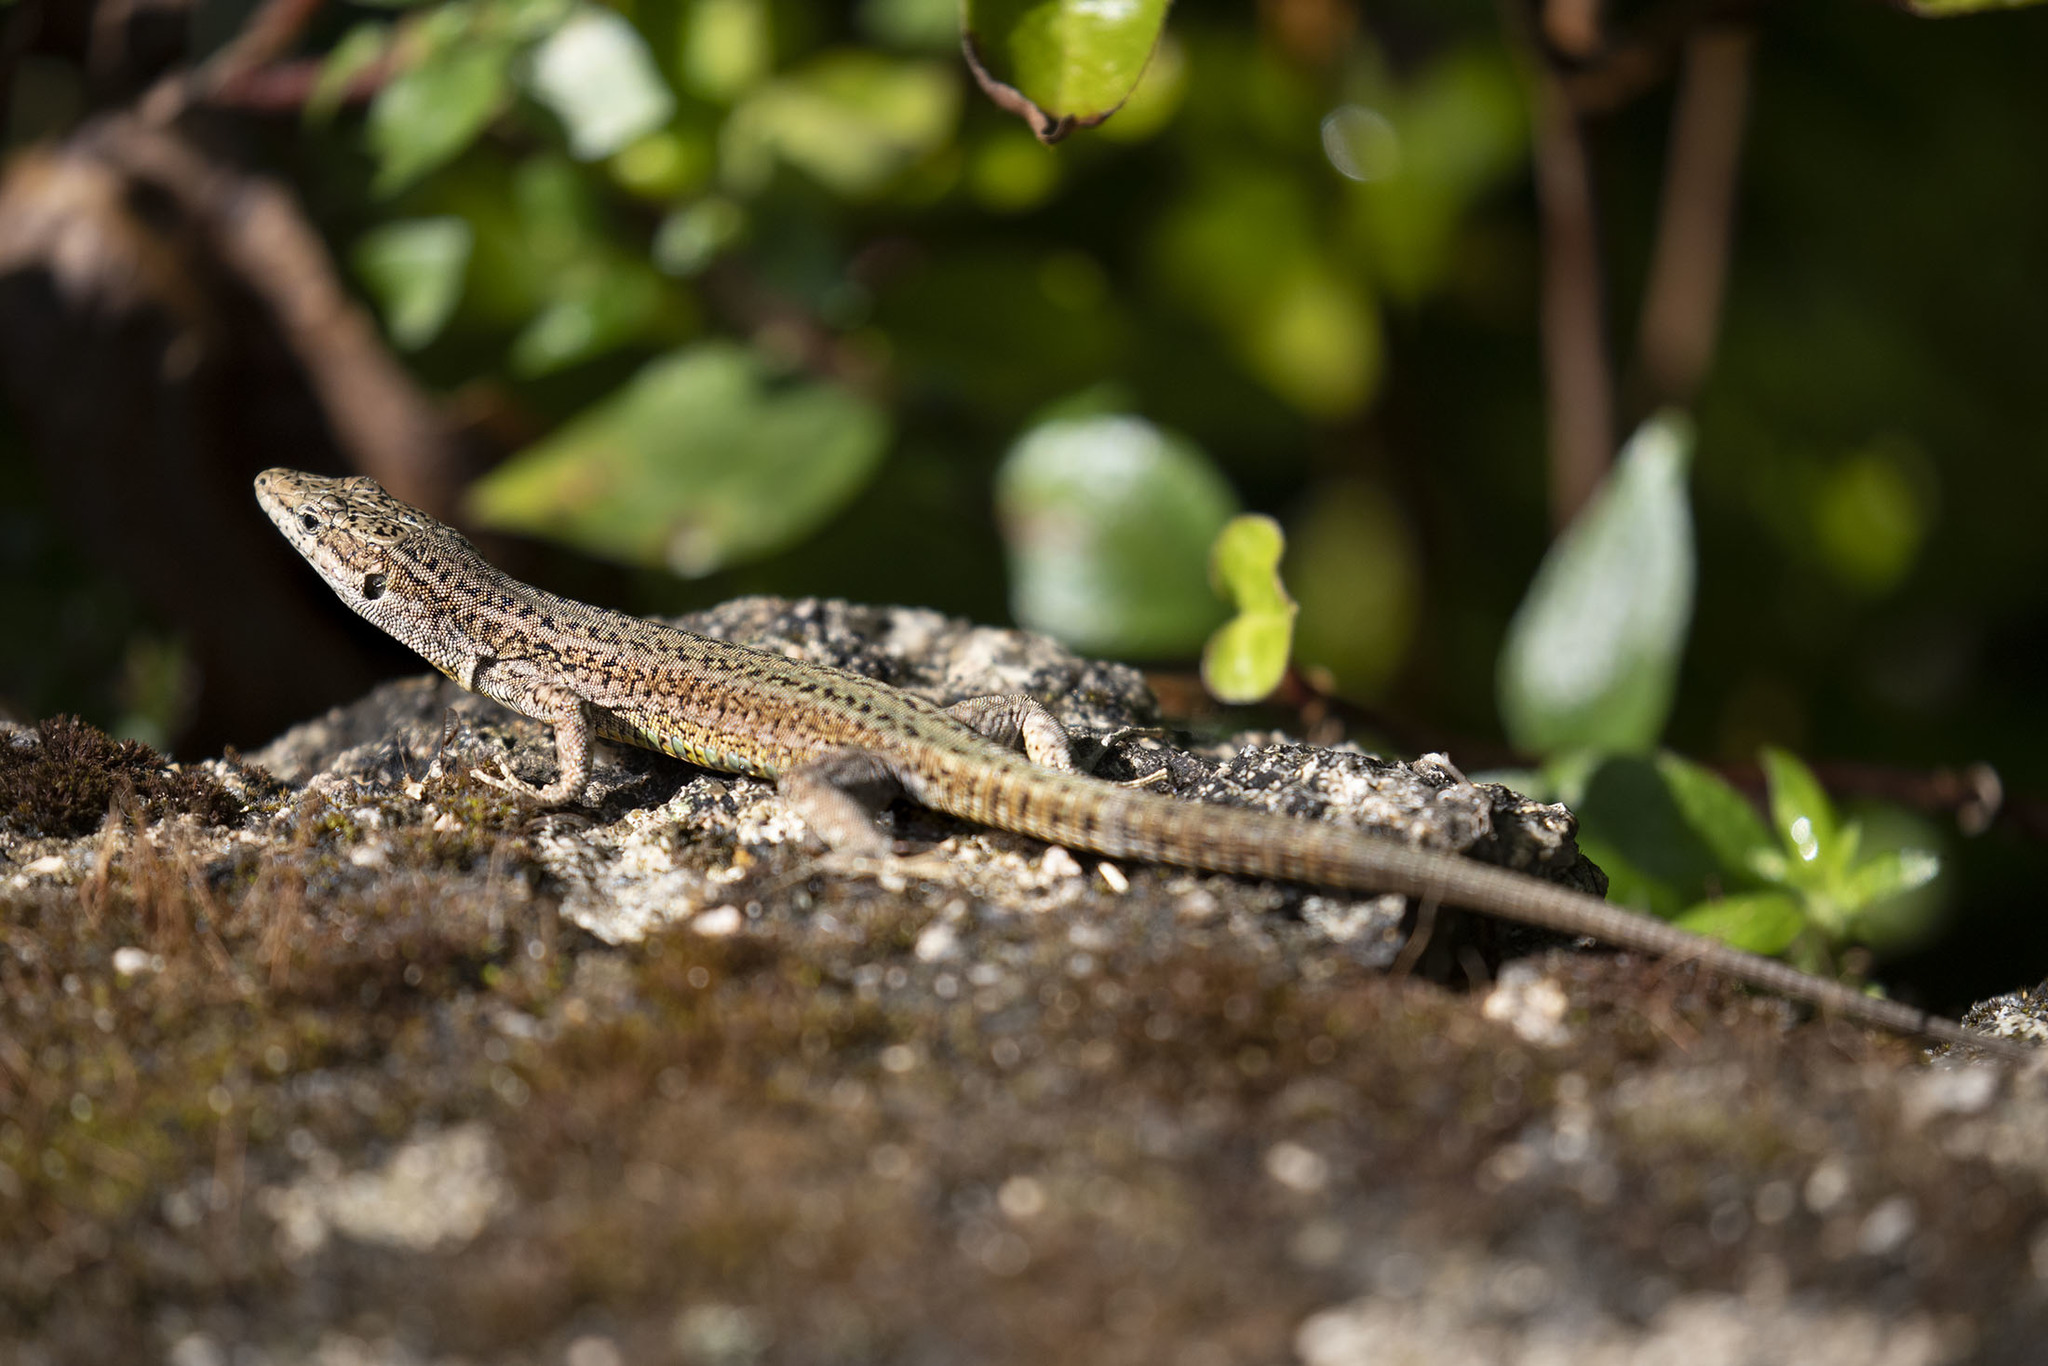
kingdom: Animalia
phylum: Chordata
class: Squamata
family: Lacertidae
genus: Podarcis
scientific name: Podarcis virescens
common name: Geniez’s wall lizard
